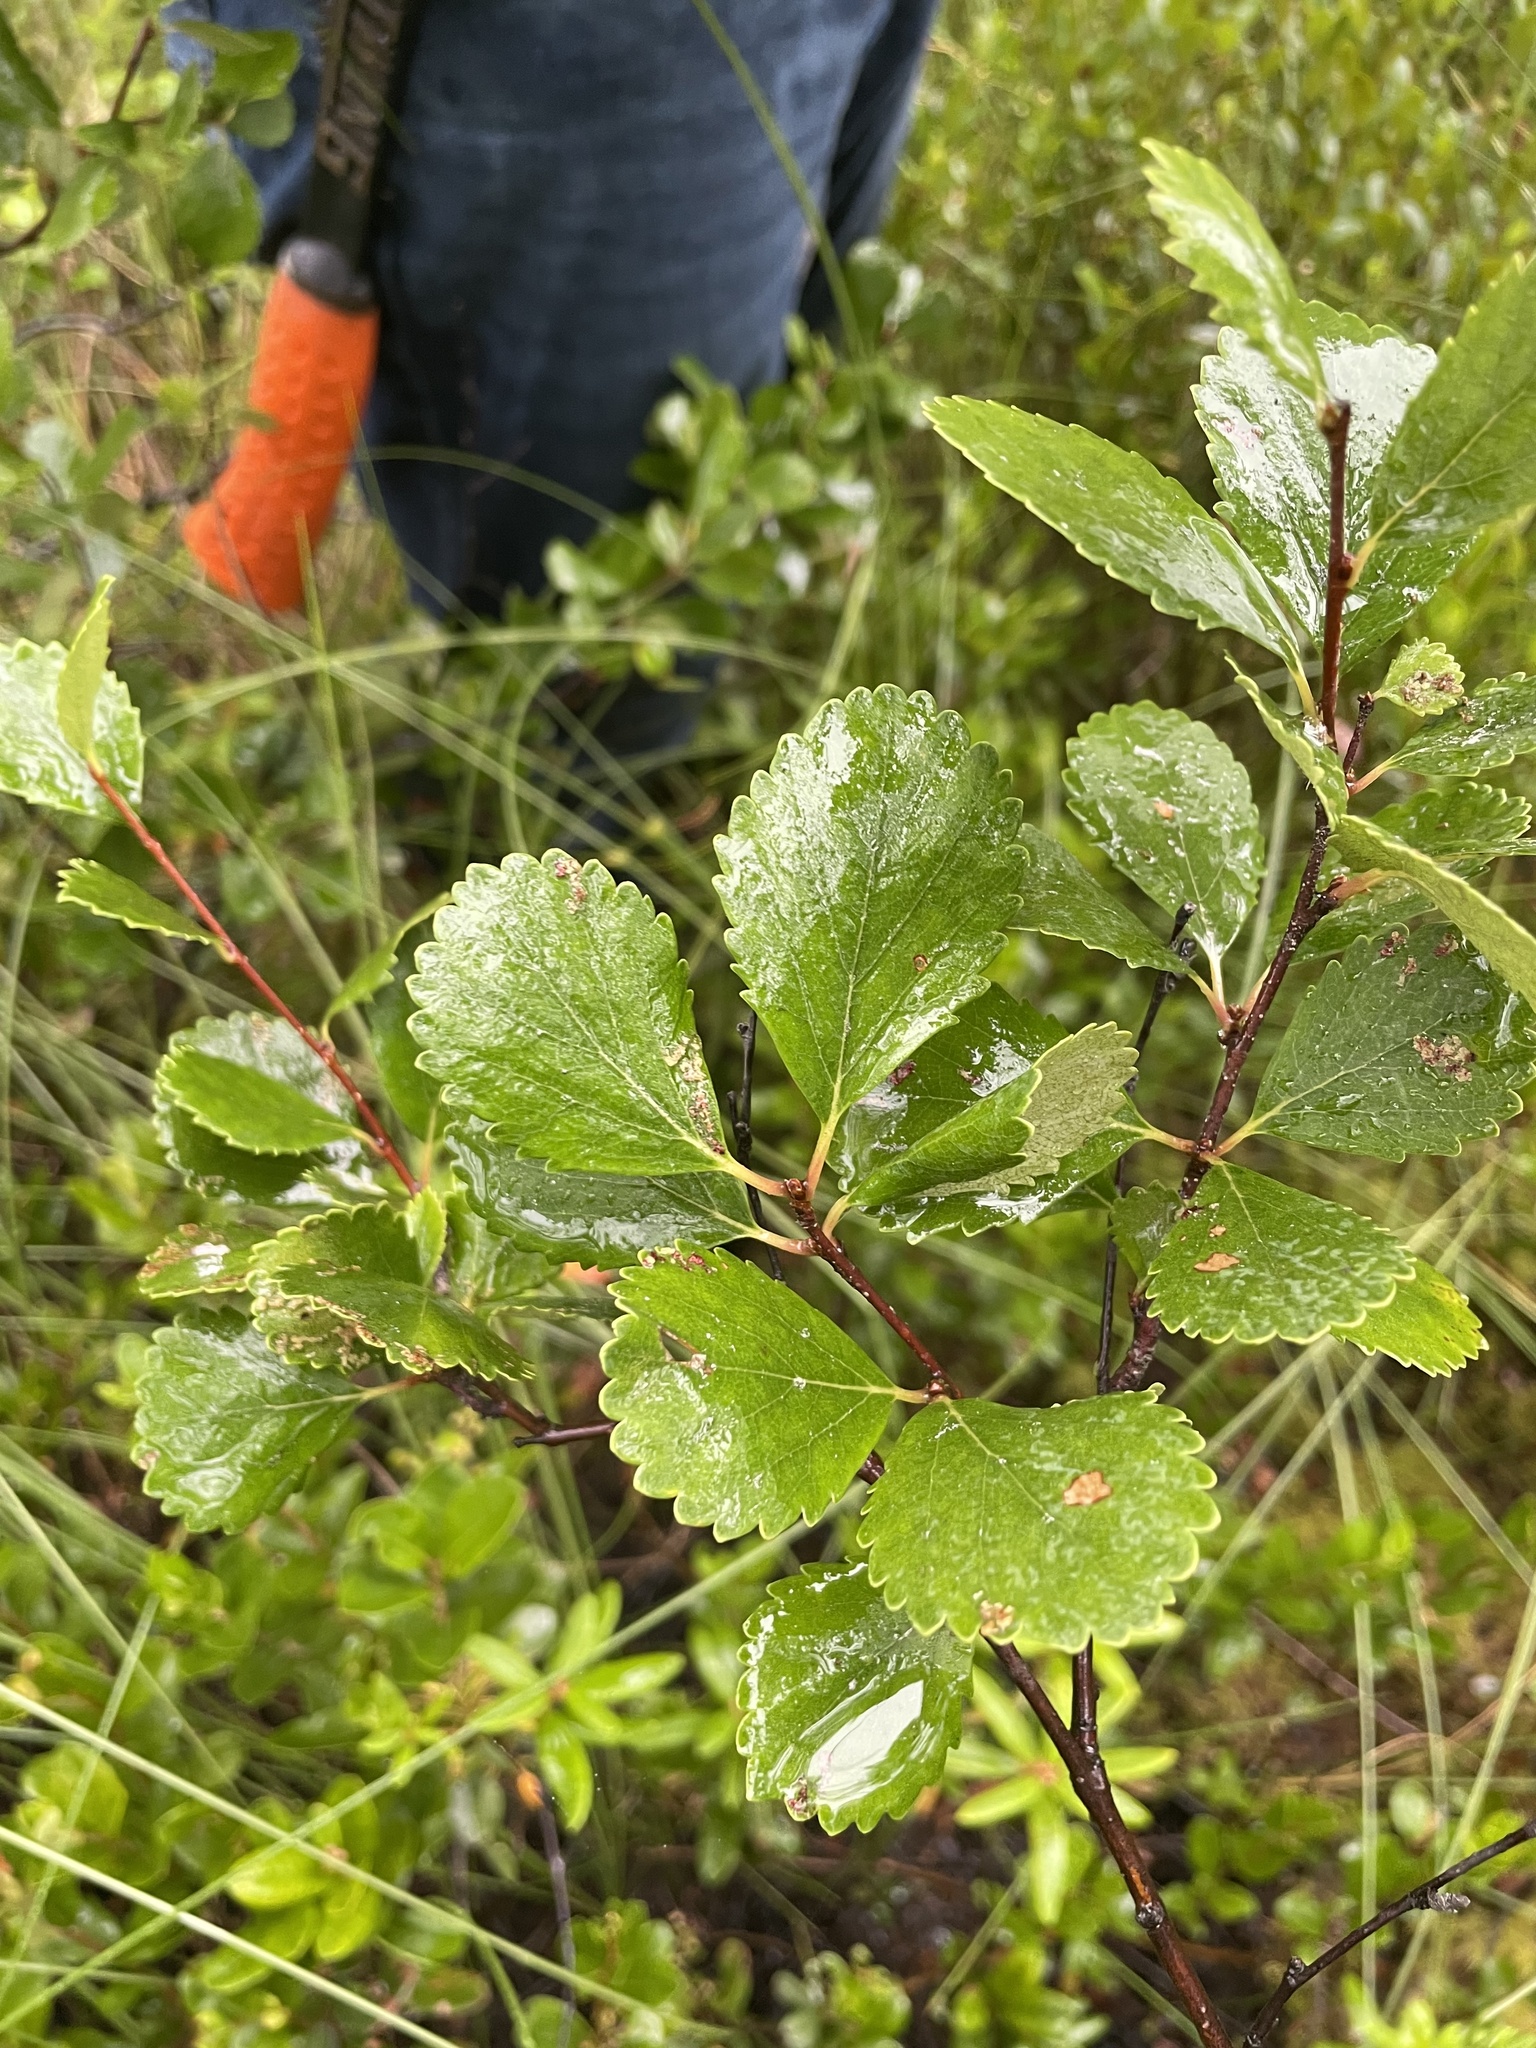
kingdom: Plantae
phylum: Tracheophyta
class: Magnoliopsida
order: Fagales
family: Betulaceae
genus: Betula
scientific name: Betula pumila
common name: Bog birch
